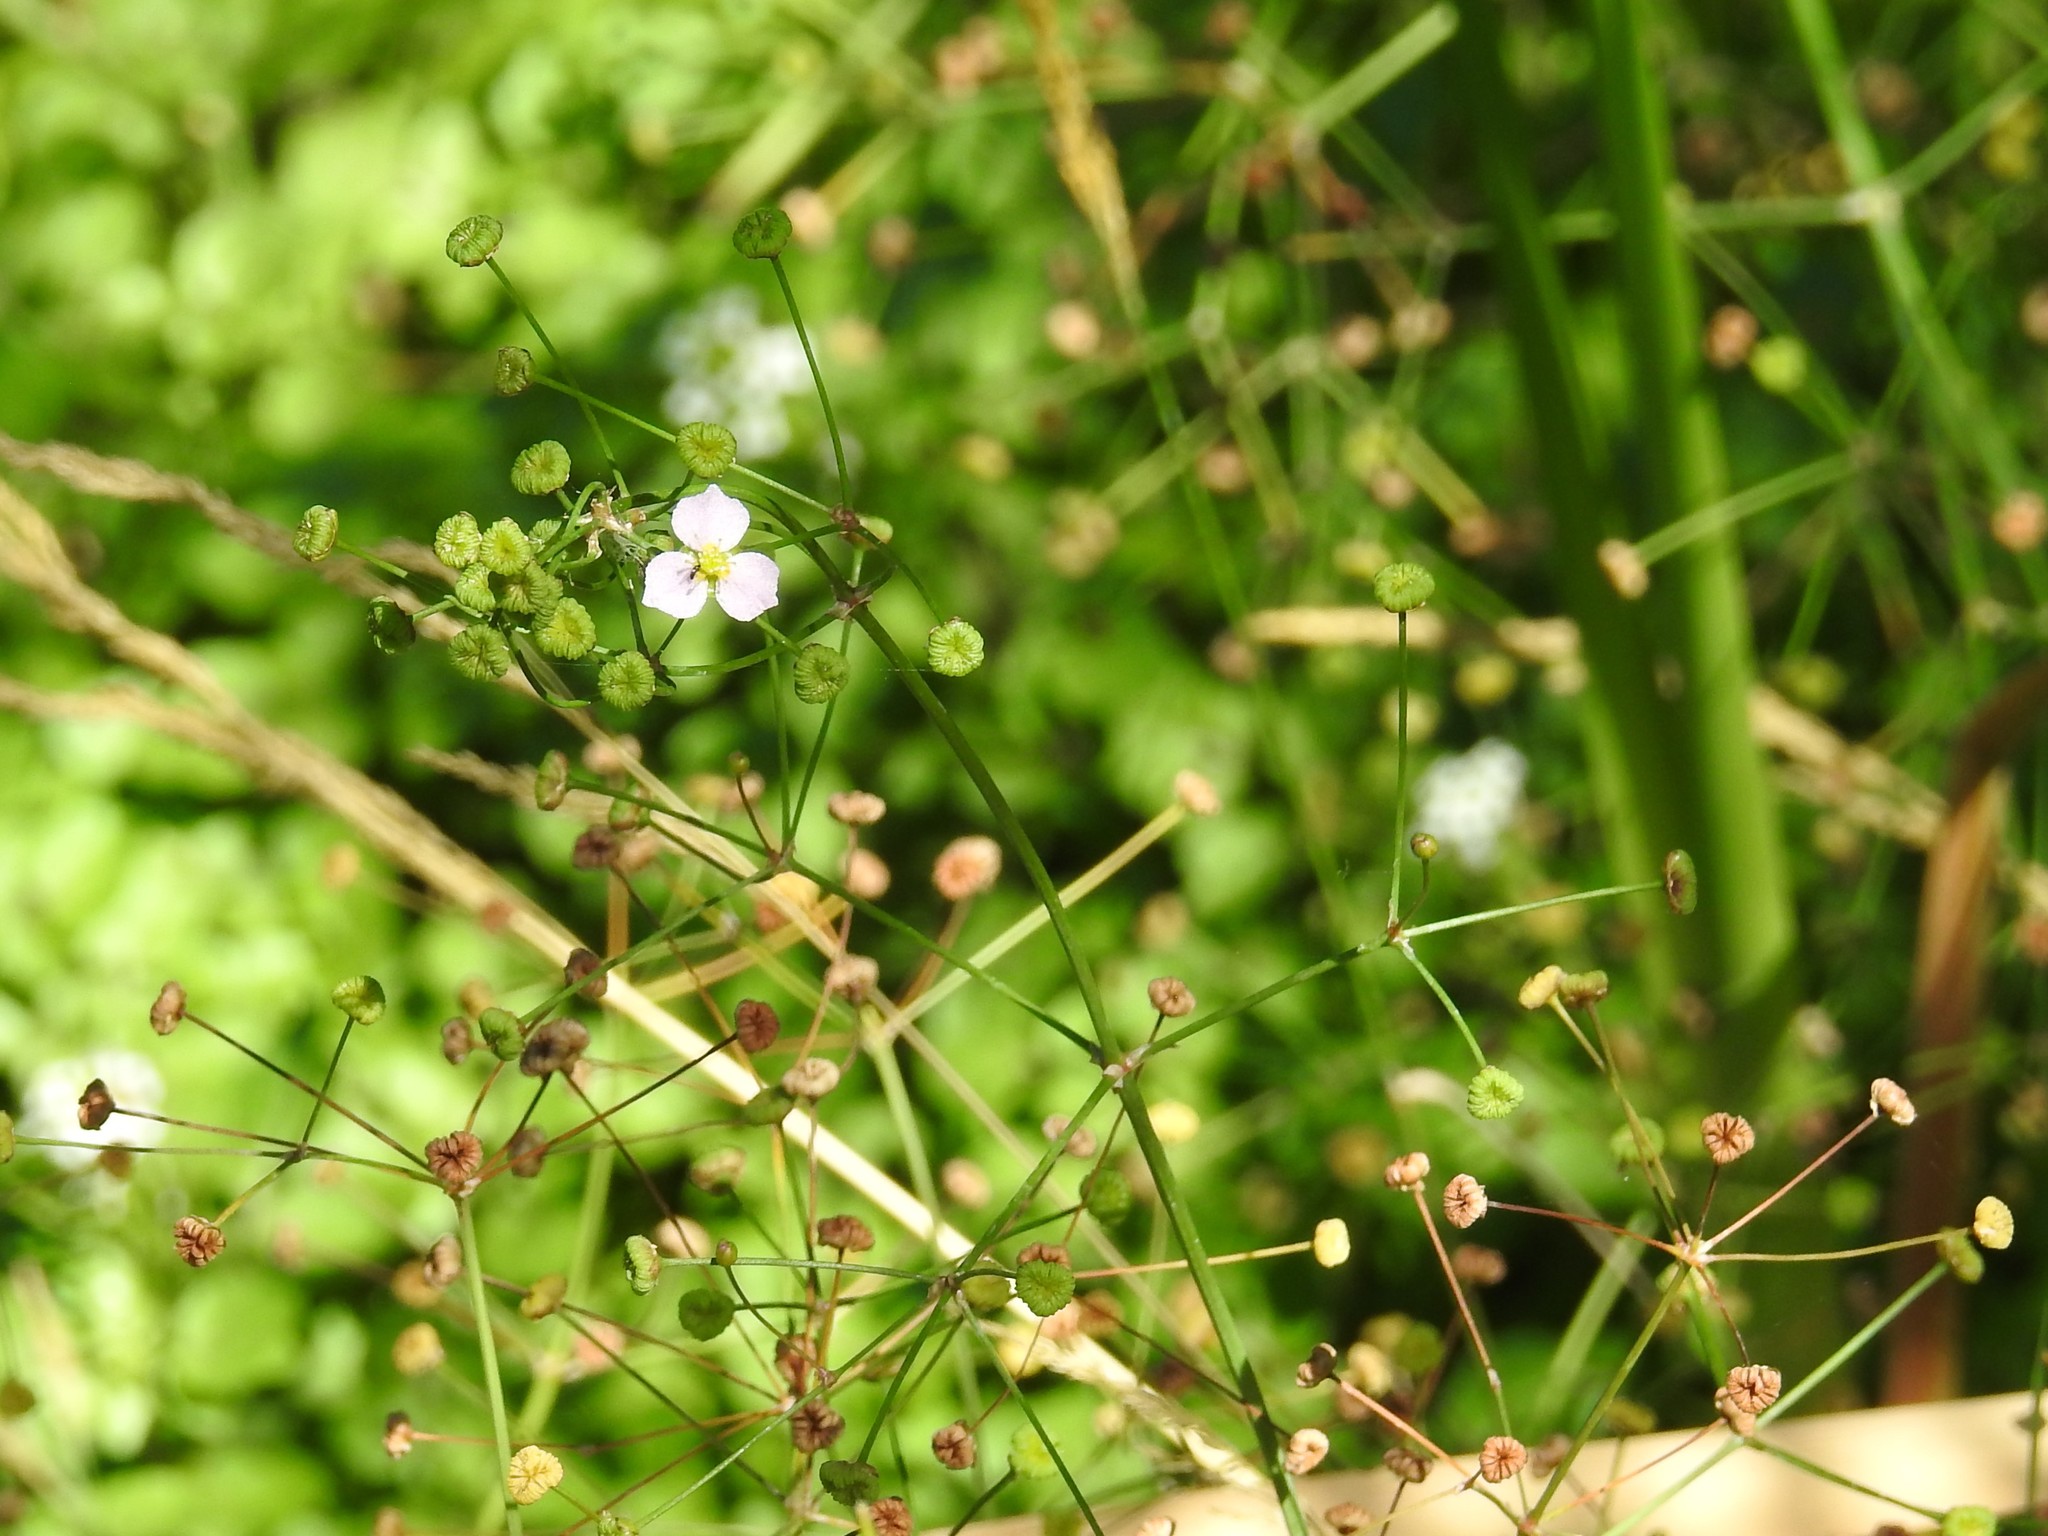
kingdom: Plantae
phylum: Tracheophyta
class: Liliopsida
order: Alismatales
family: Alismataceae
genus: Alisma
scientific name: Alisma triviale
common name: Northern water-plantain
